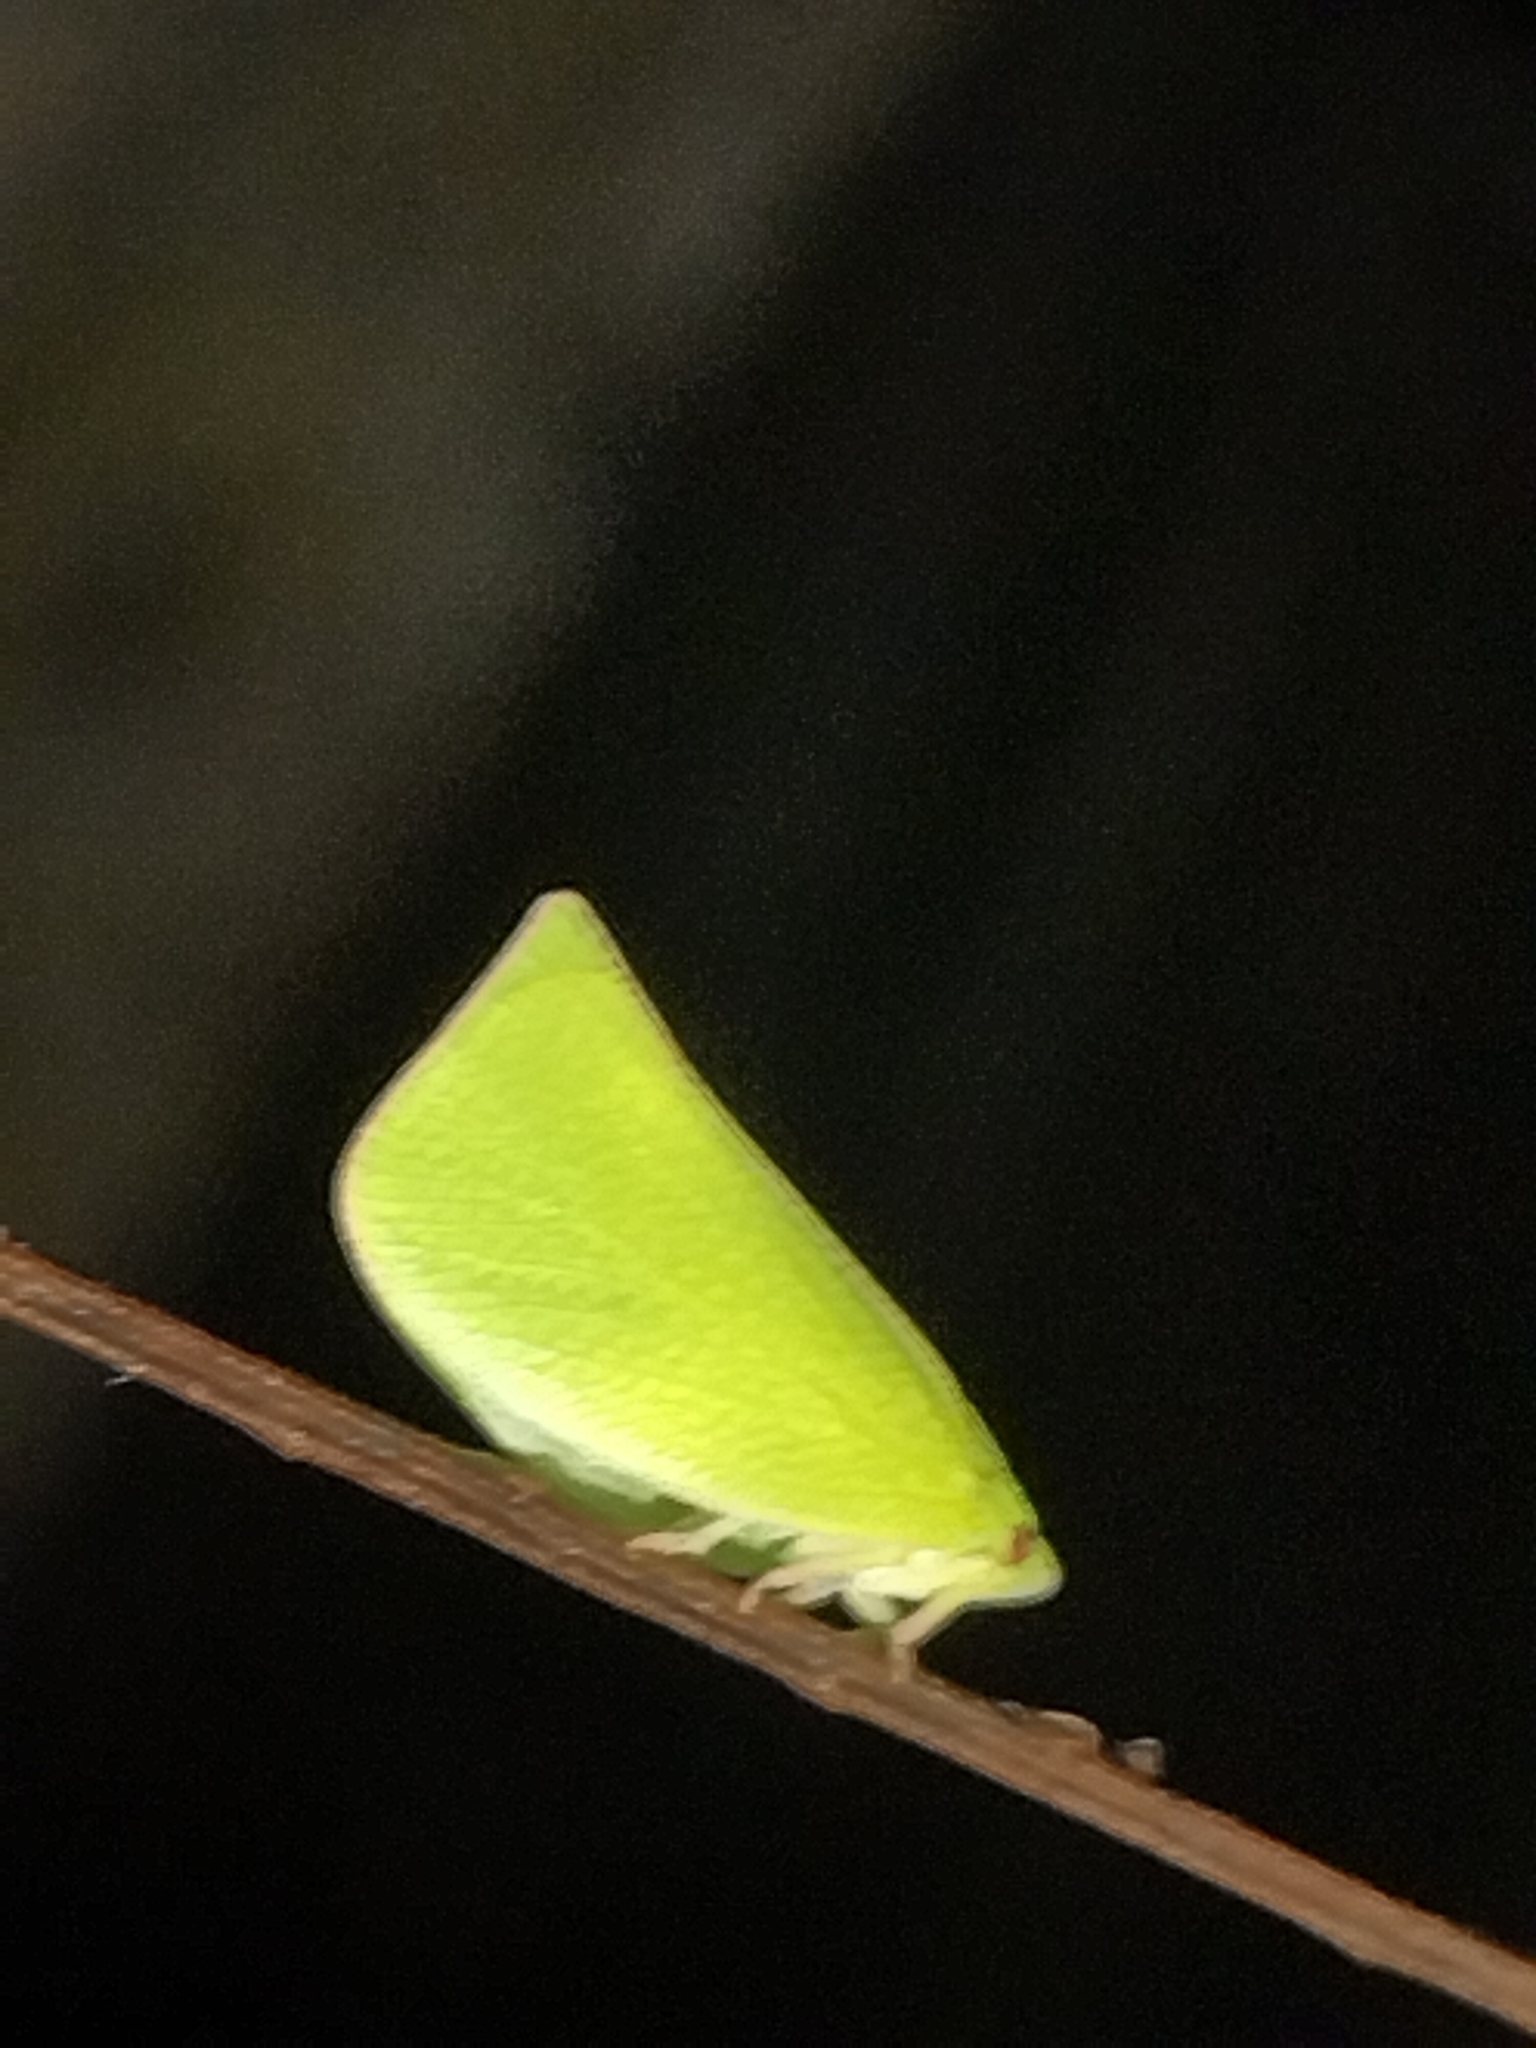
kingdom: Animalia
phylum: Arthropoda
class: Insecta
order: Hemiptera
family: Flatidae
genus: Siphanta
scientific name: Siphanta acuta
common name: Torpedo bug
